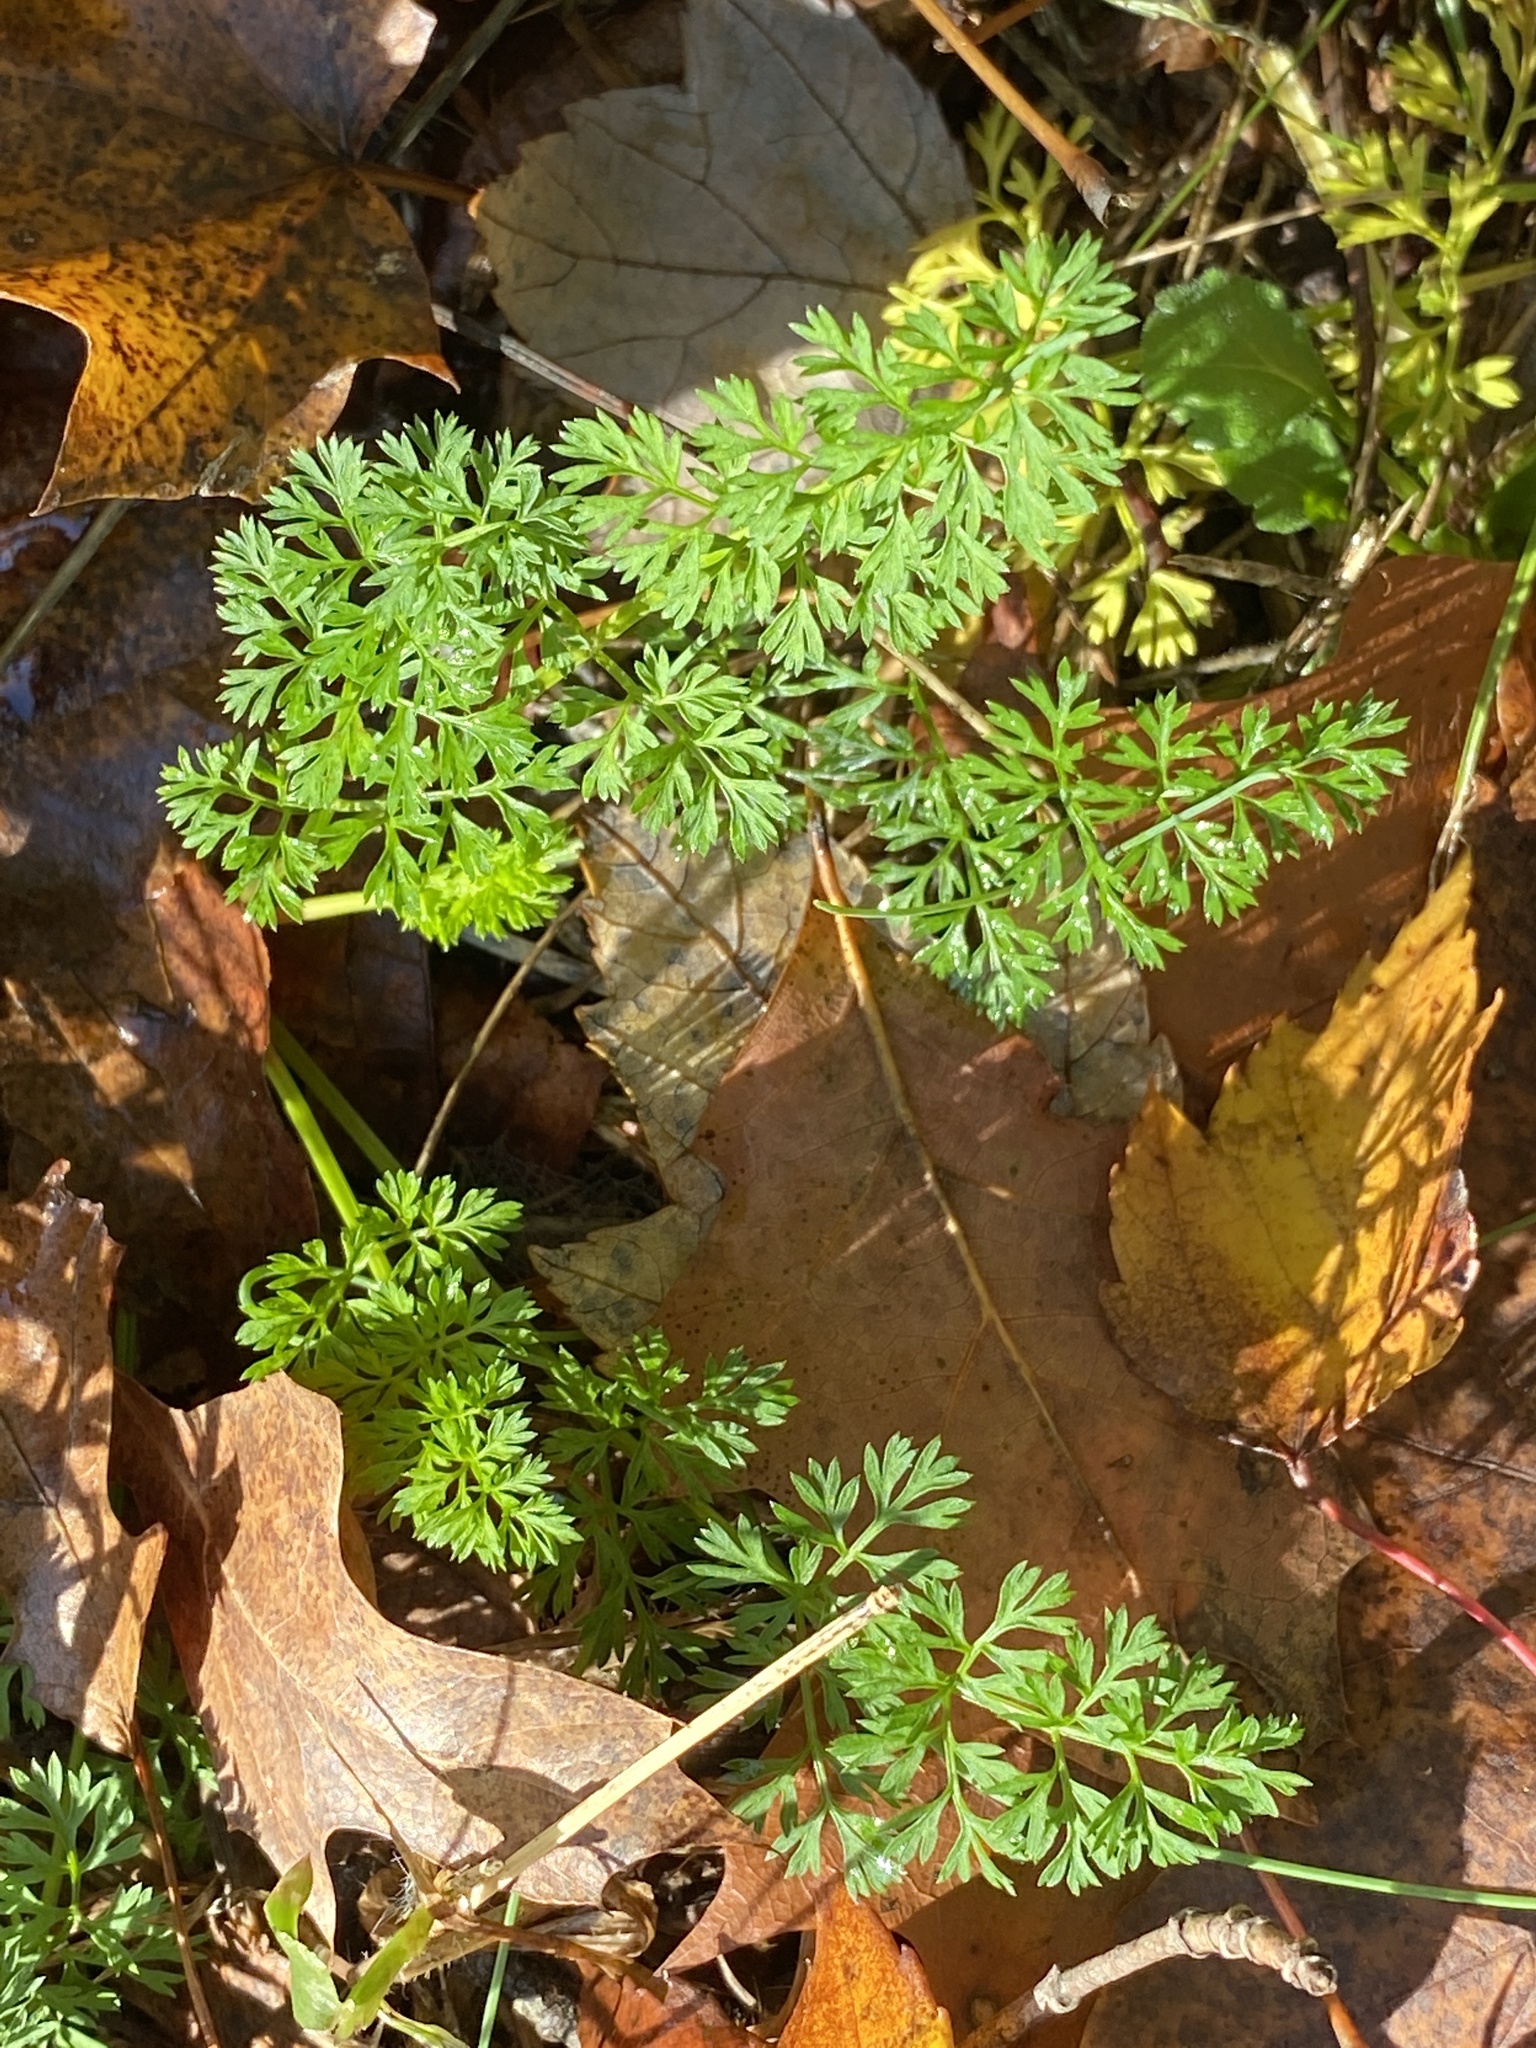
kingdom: Plantae
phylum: Tracheophyta
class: Magnoliopsida
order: Apiales
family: Apiaceae
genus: Daucus
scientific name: Daucus carota
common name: Wild carrot
